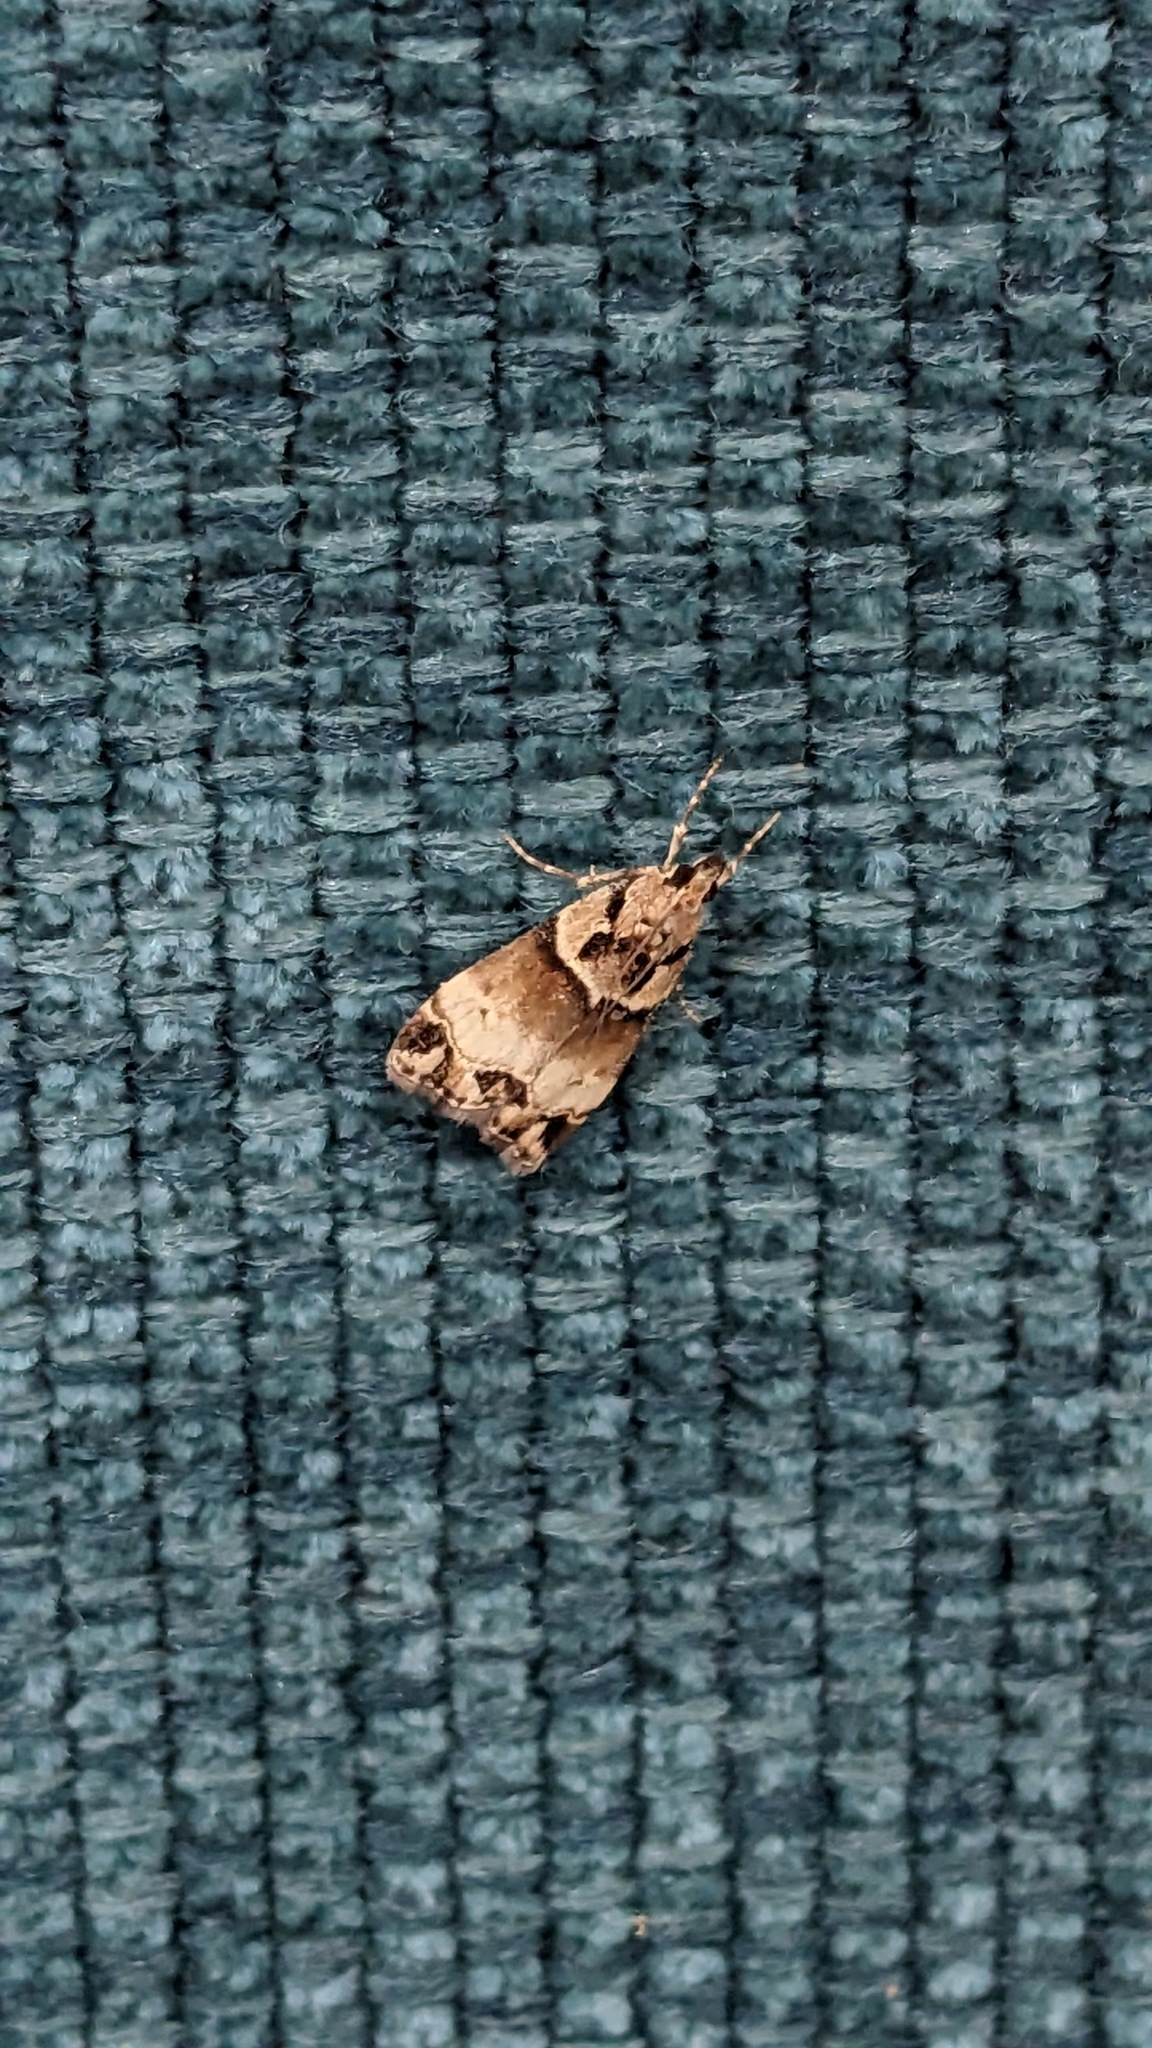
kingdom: Animalia
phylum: Arthropoda
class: Insecta
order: Lepidoptera
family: Crambidae
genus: Eudonia
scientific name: Eudonia periphanes
